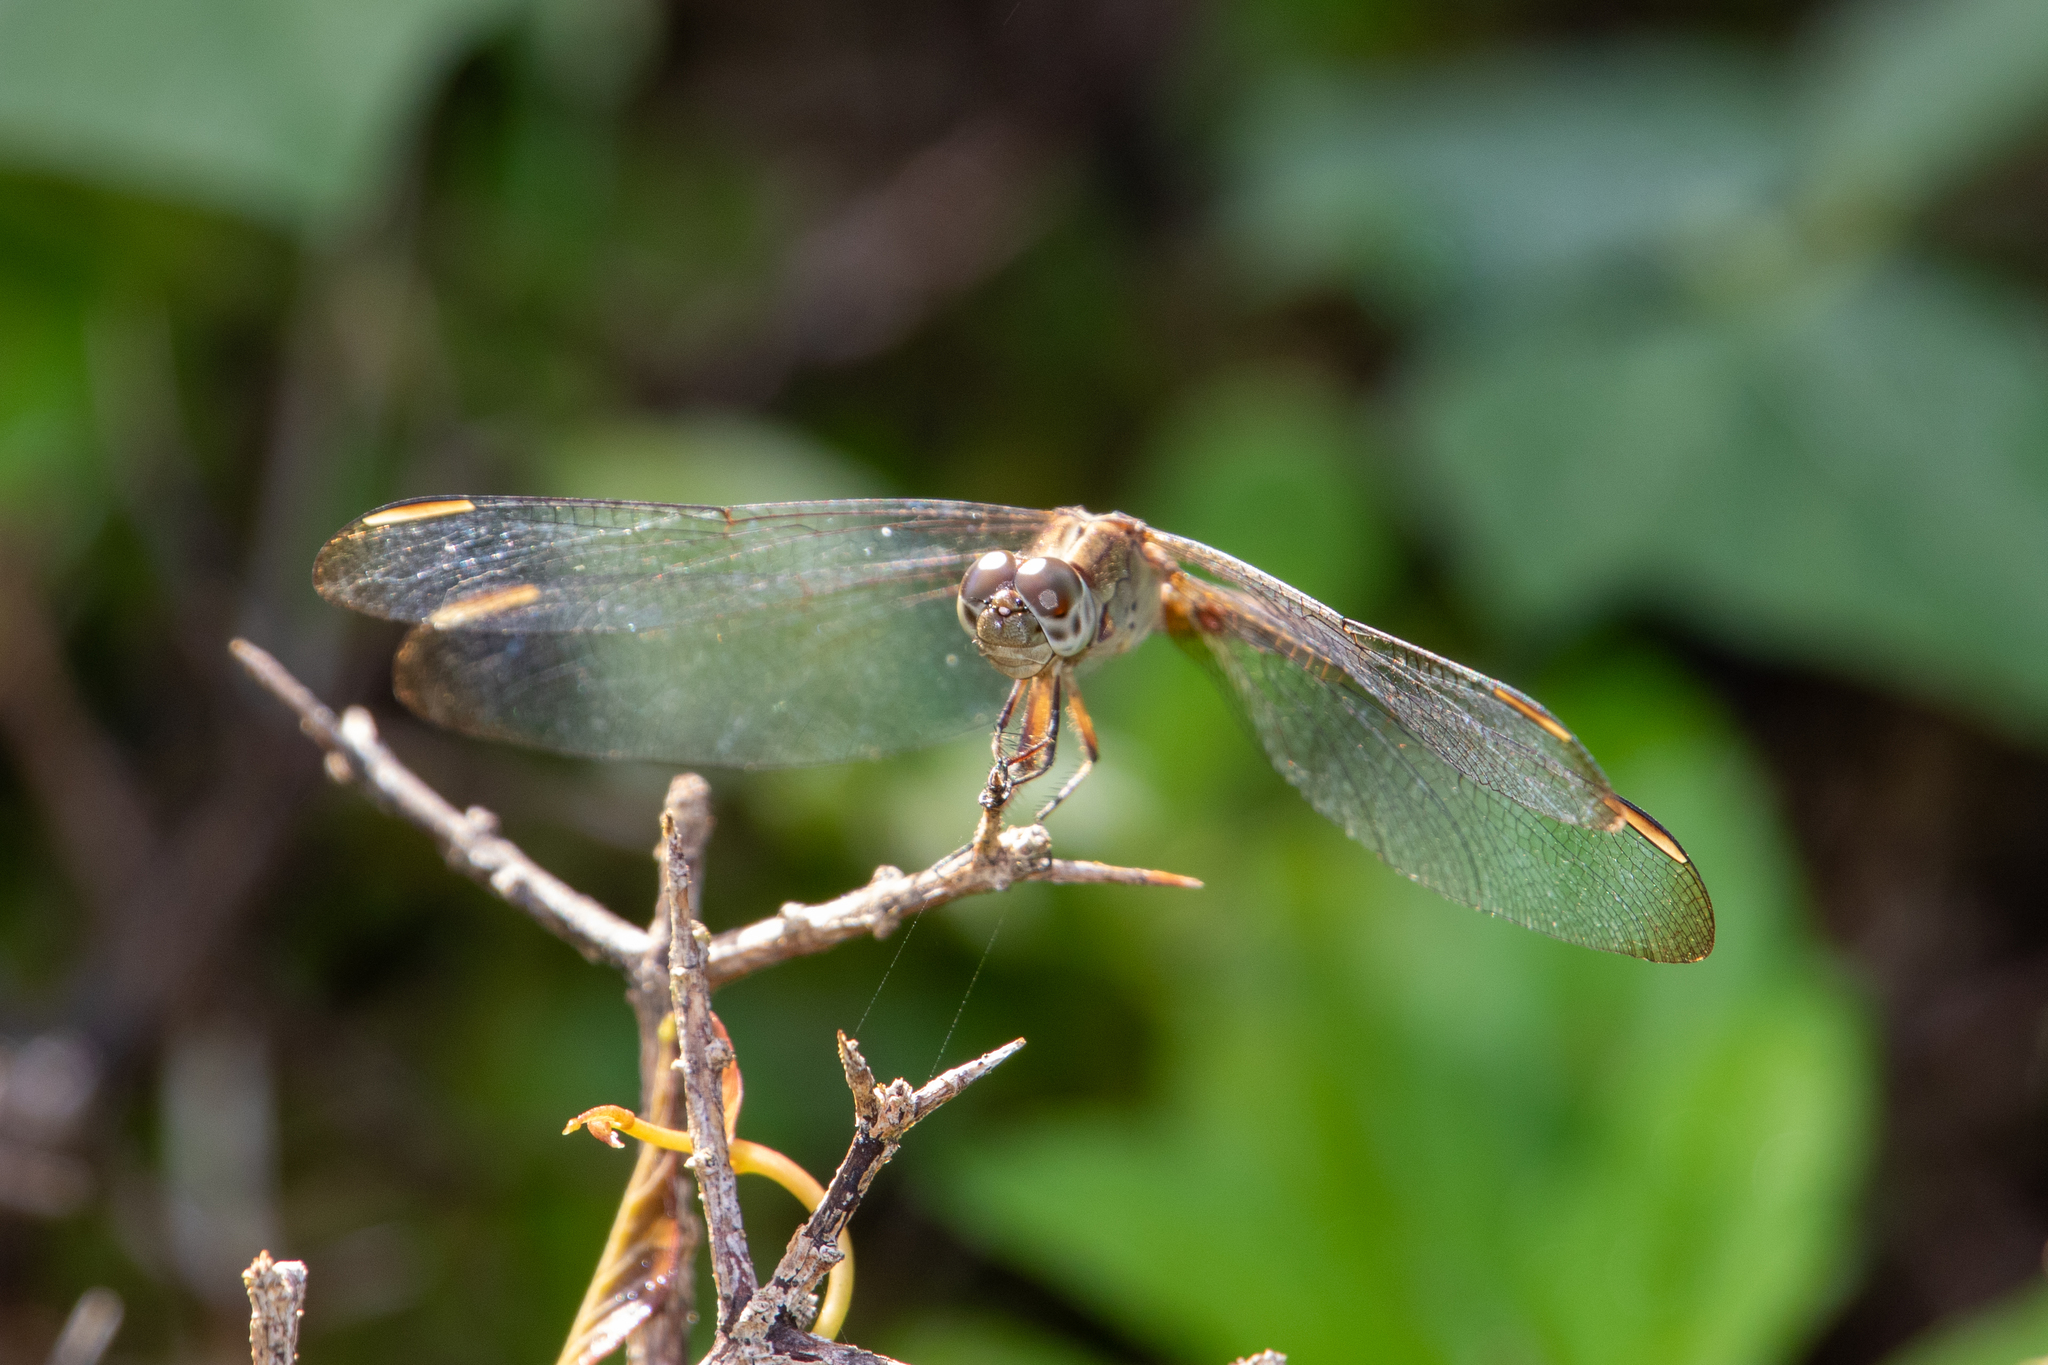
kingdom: Animalia
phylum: Arthropoda
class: Insecta
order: Odonata
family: Libellulidae
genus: Erythrodiplax
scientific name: Erythrodiplax umbrata
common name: Band-winged dragonlet
